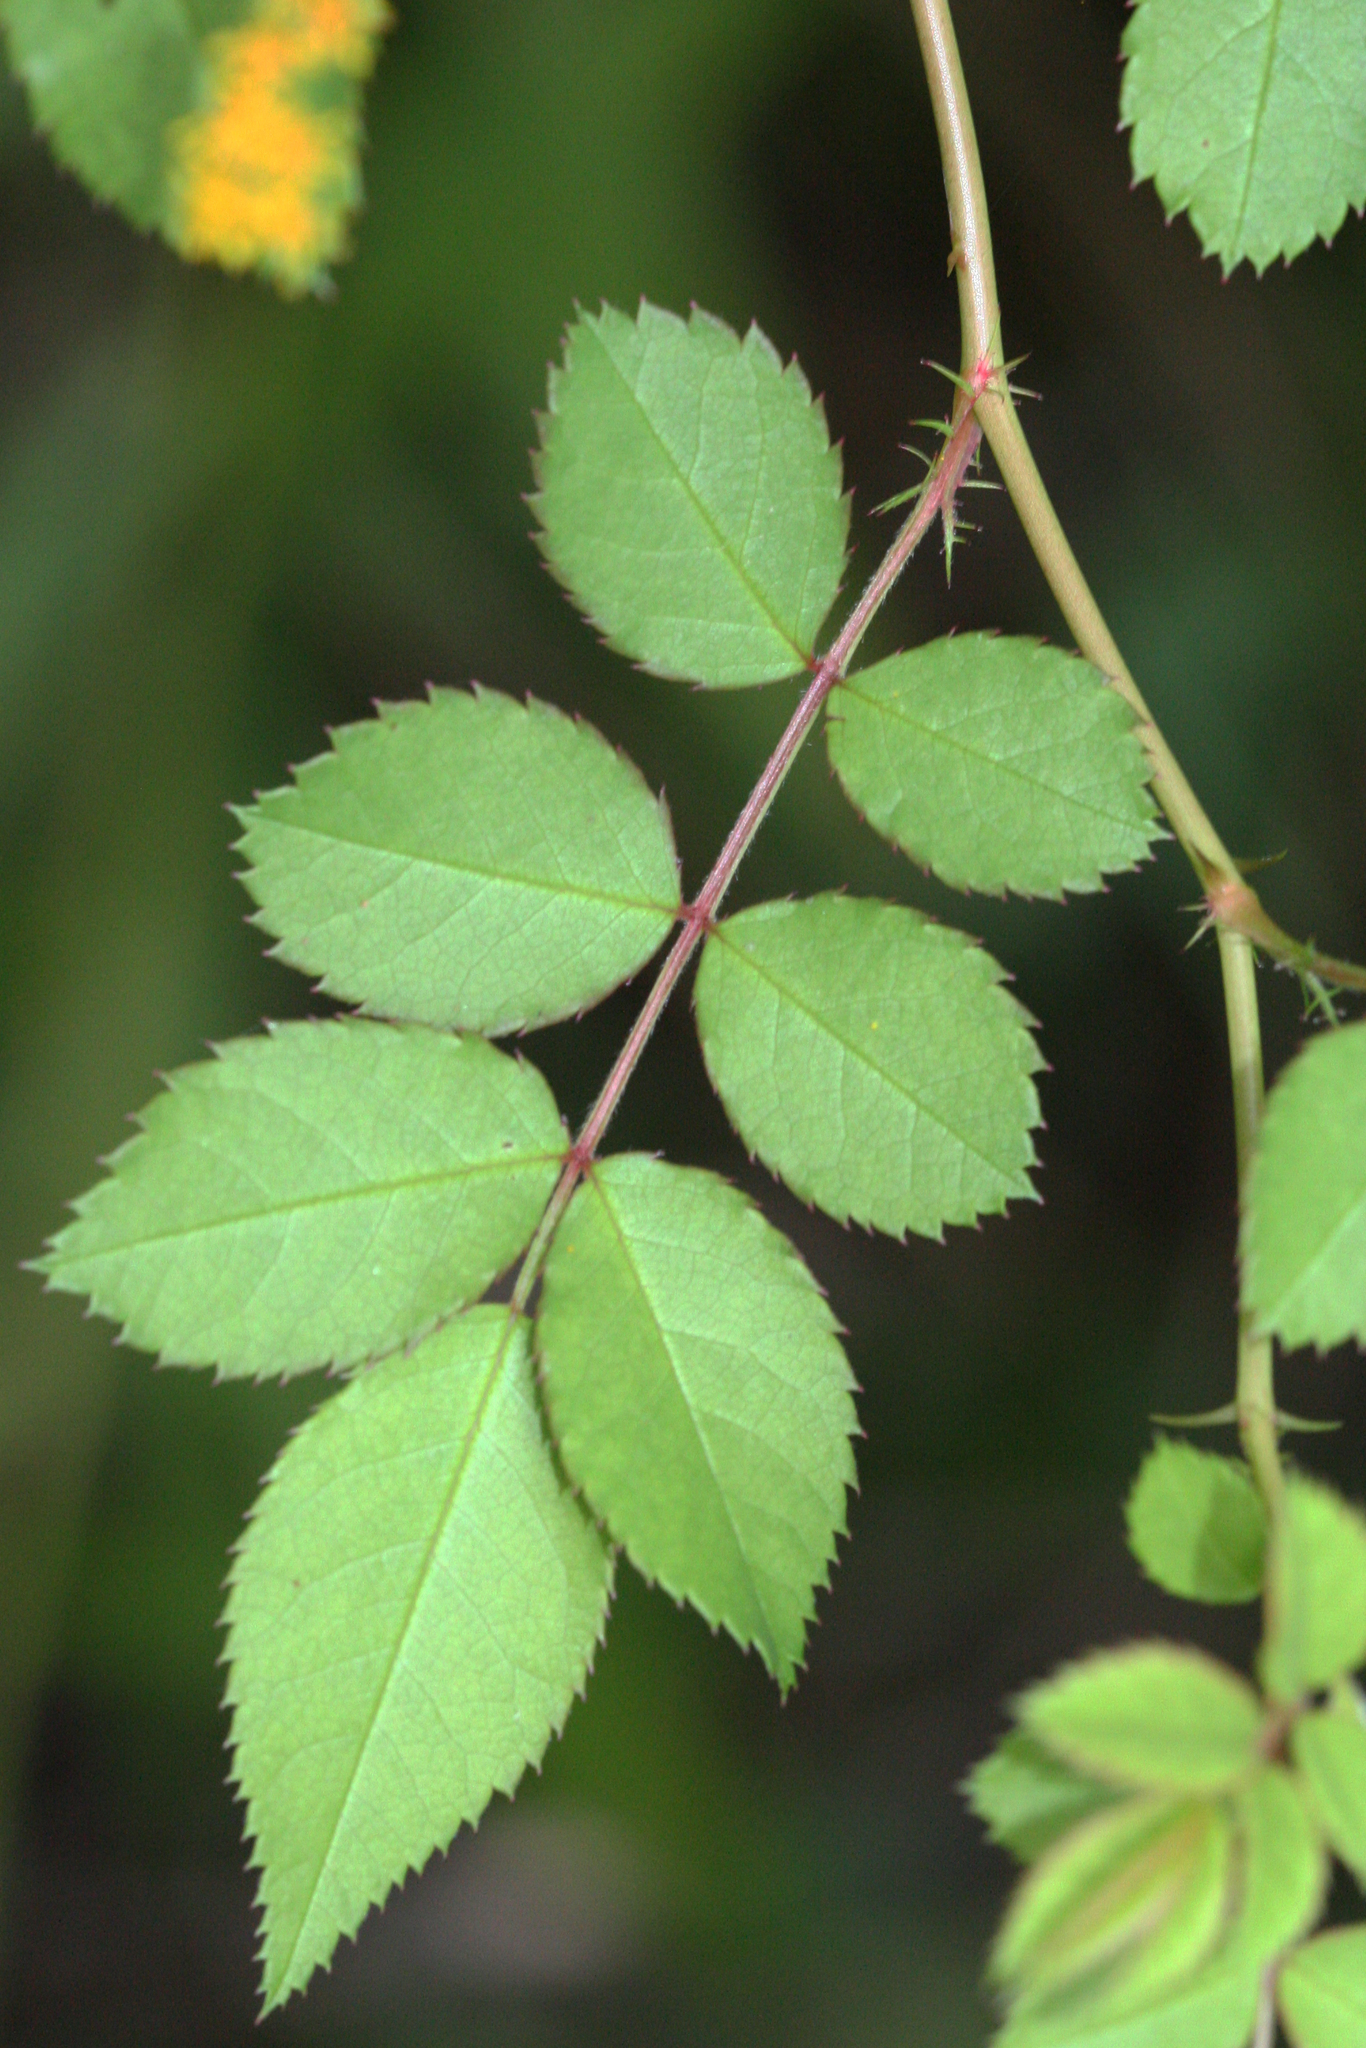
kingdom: Plantae
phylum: Tracheophyta
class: Magnoliopsida
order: Rosales
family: Rosaceae
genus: Rosa
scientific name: Rosa multiflora
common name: Multiflora rose
